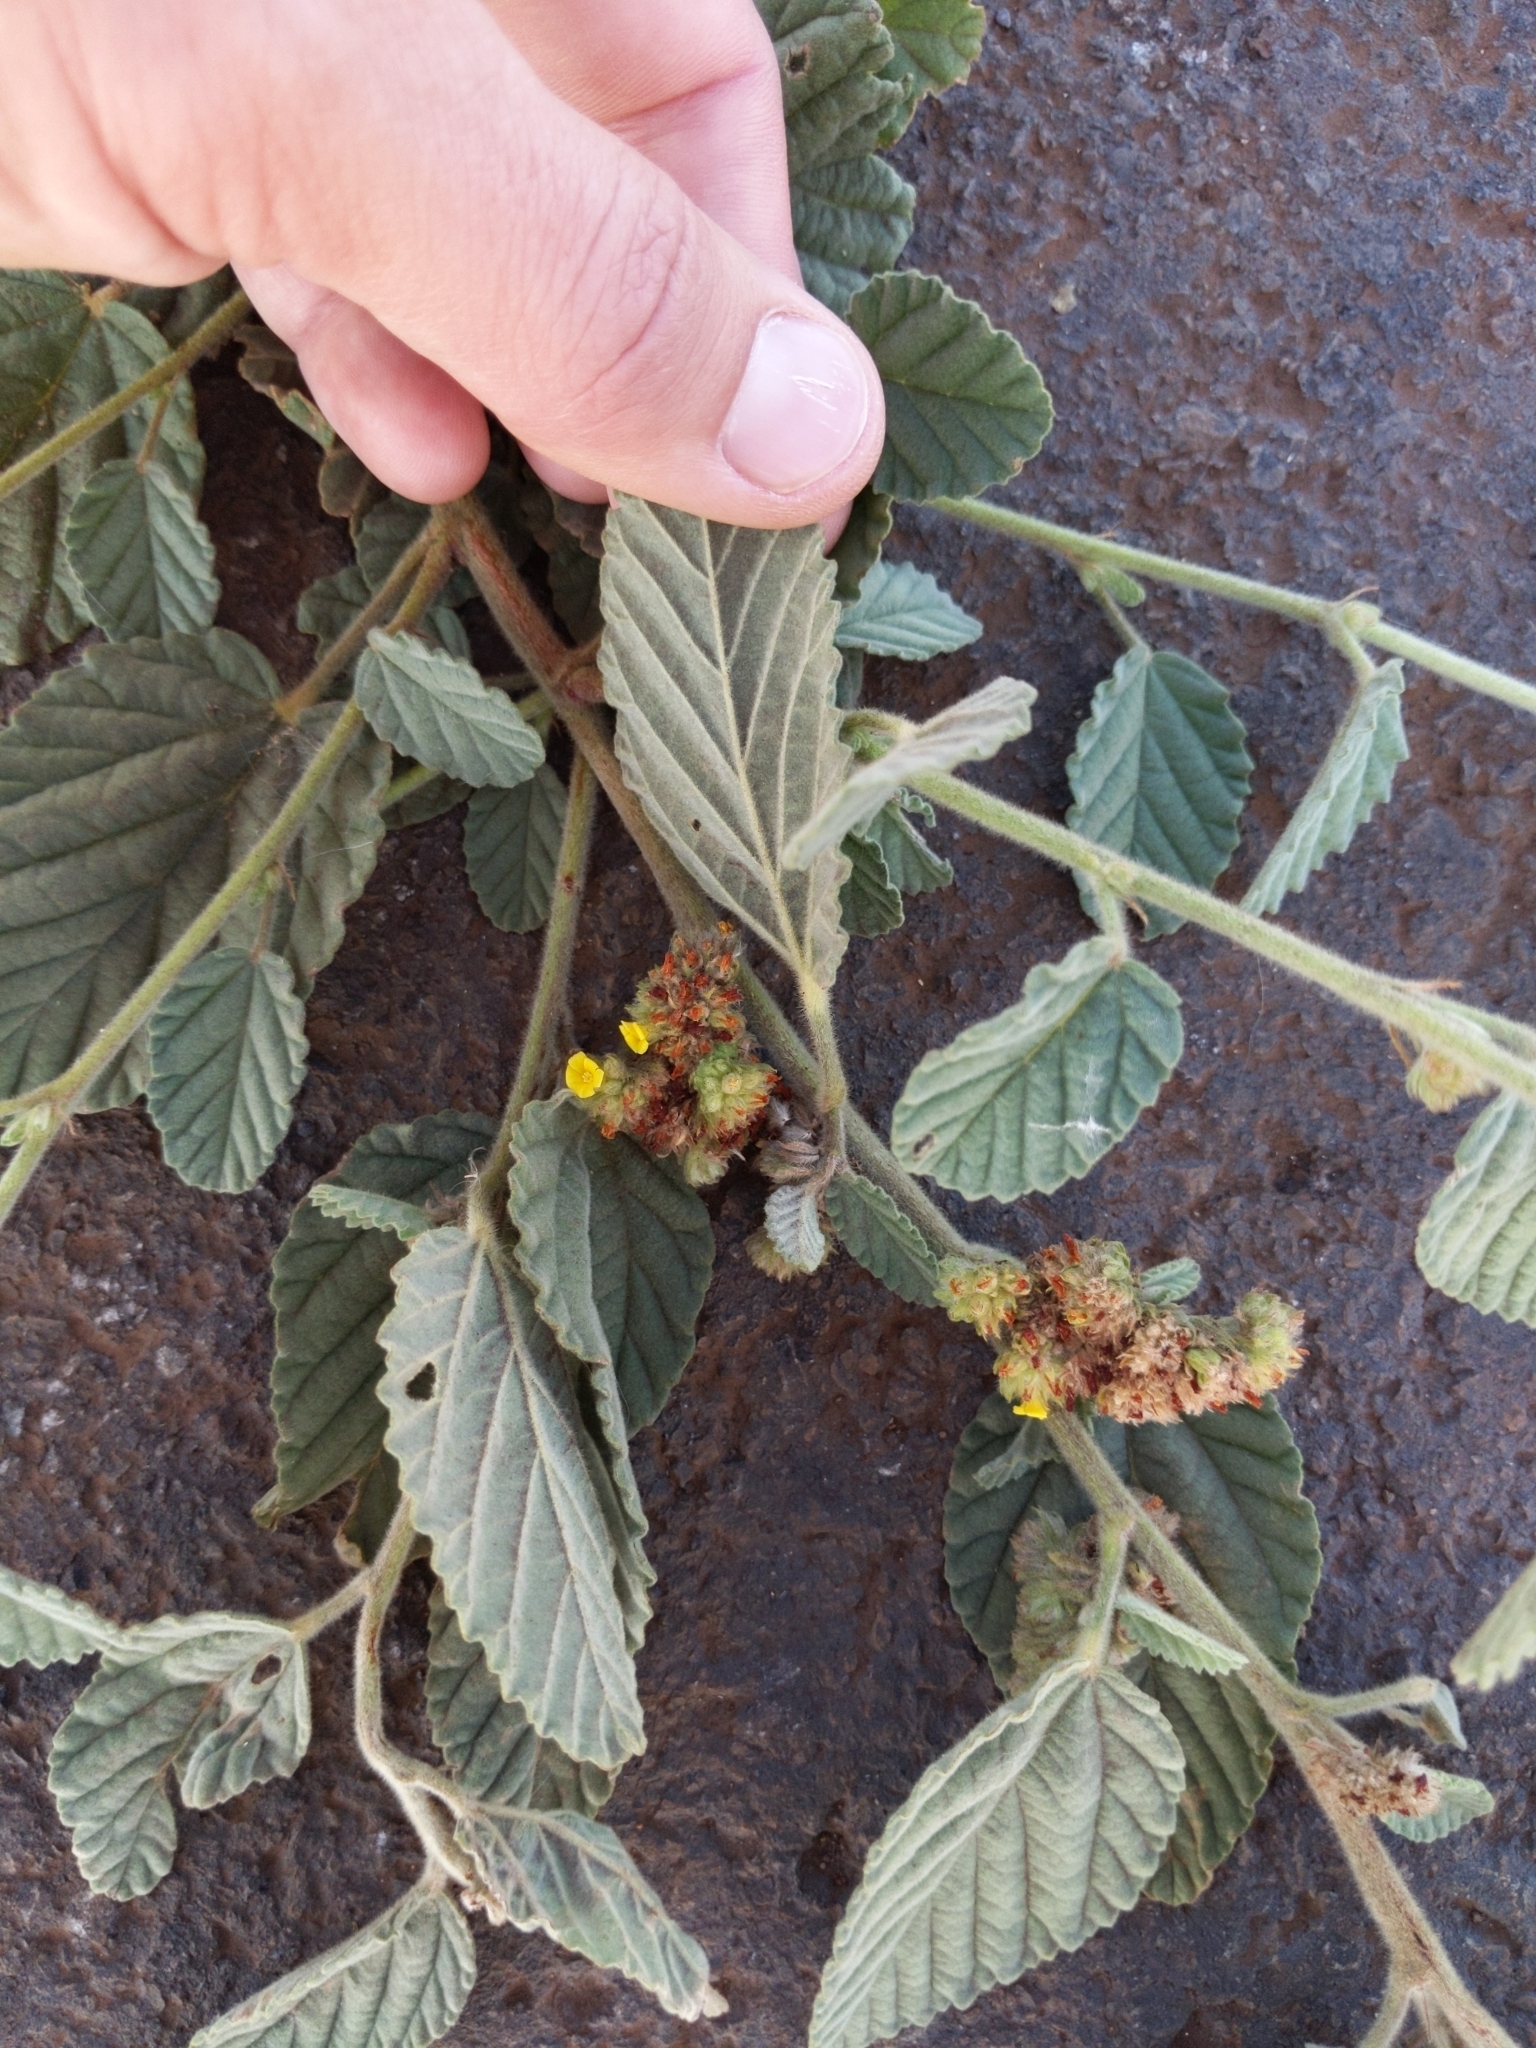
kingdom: Plantae
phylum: Tracheophyta
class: Magnoliopsida
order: Malvales
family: Malvaceae
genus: Waltheria
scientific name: Waltheria indica
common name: Leather-coat
